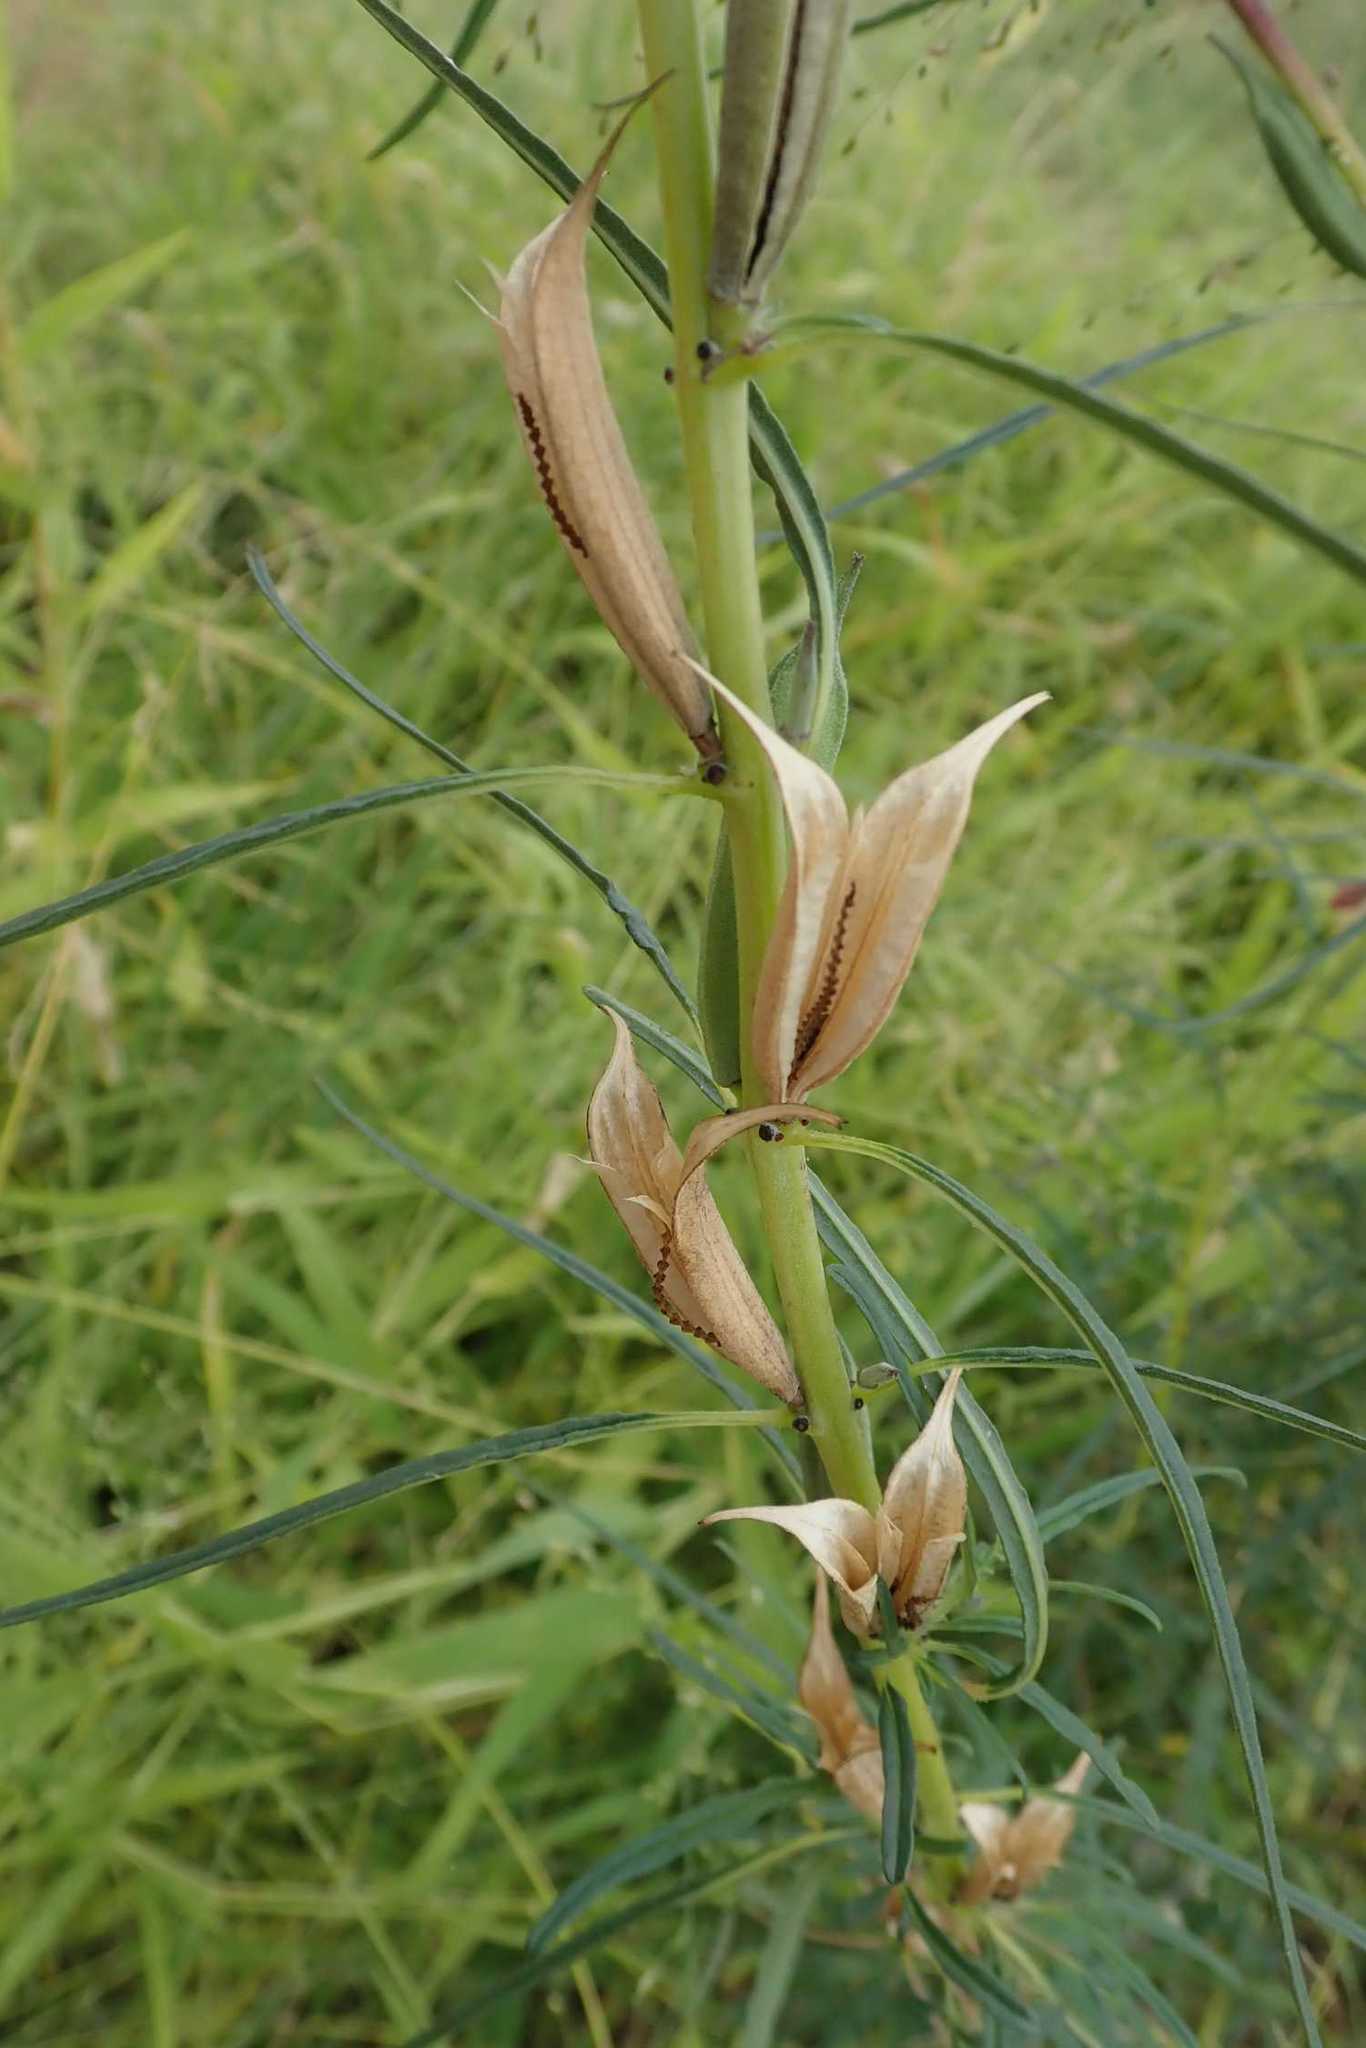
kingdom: Plantae
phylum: Tracheophyta
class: Magnoliopsida
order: Lamiales
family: Pedaliaceae
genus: Sesamum
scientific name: Sesamum alatum
